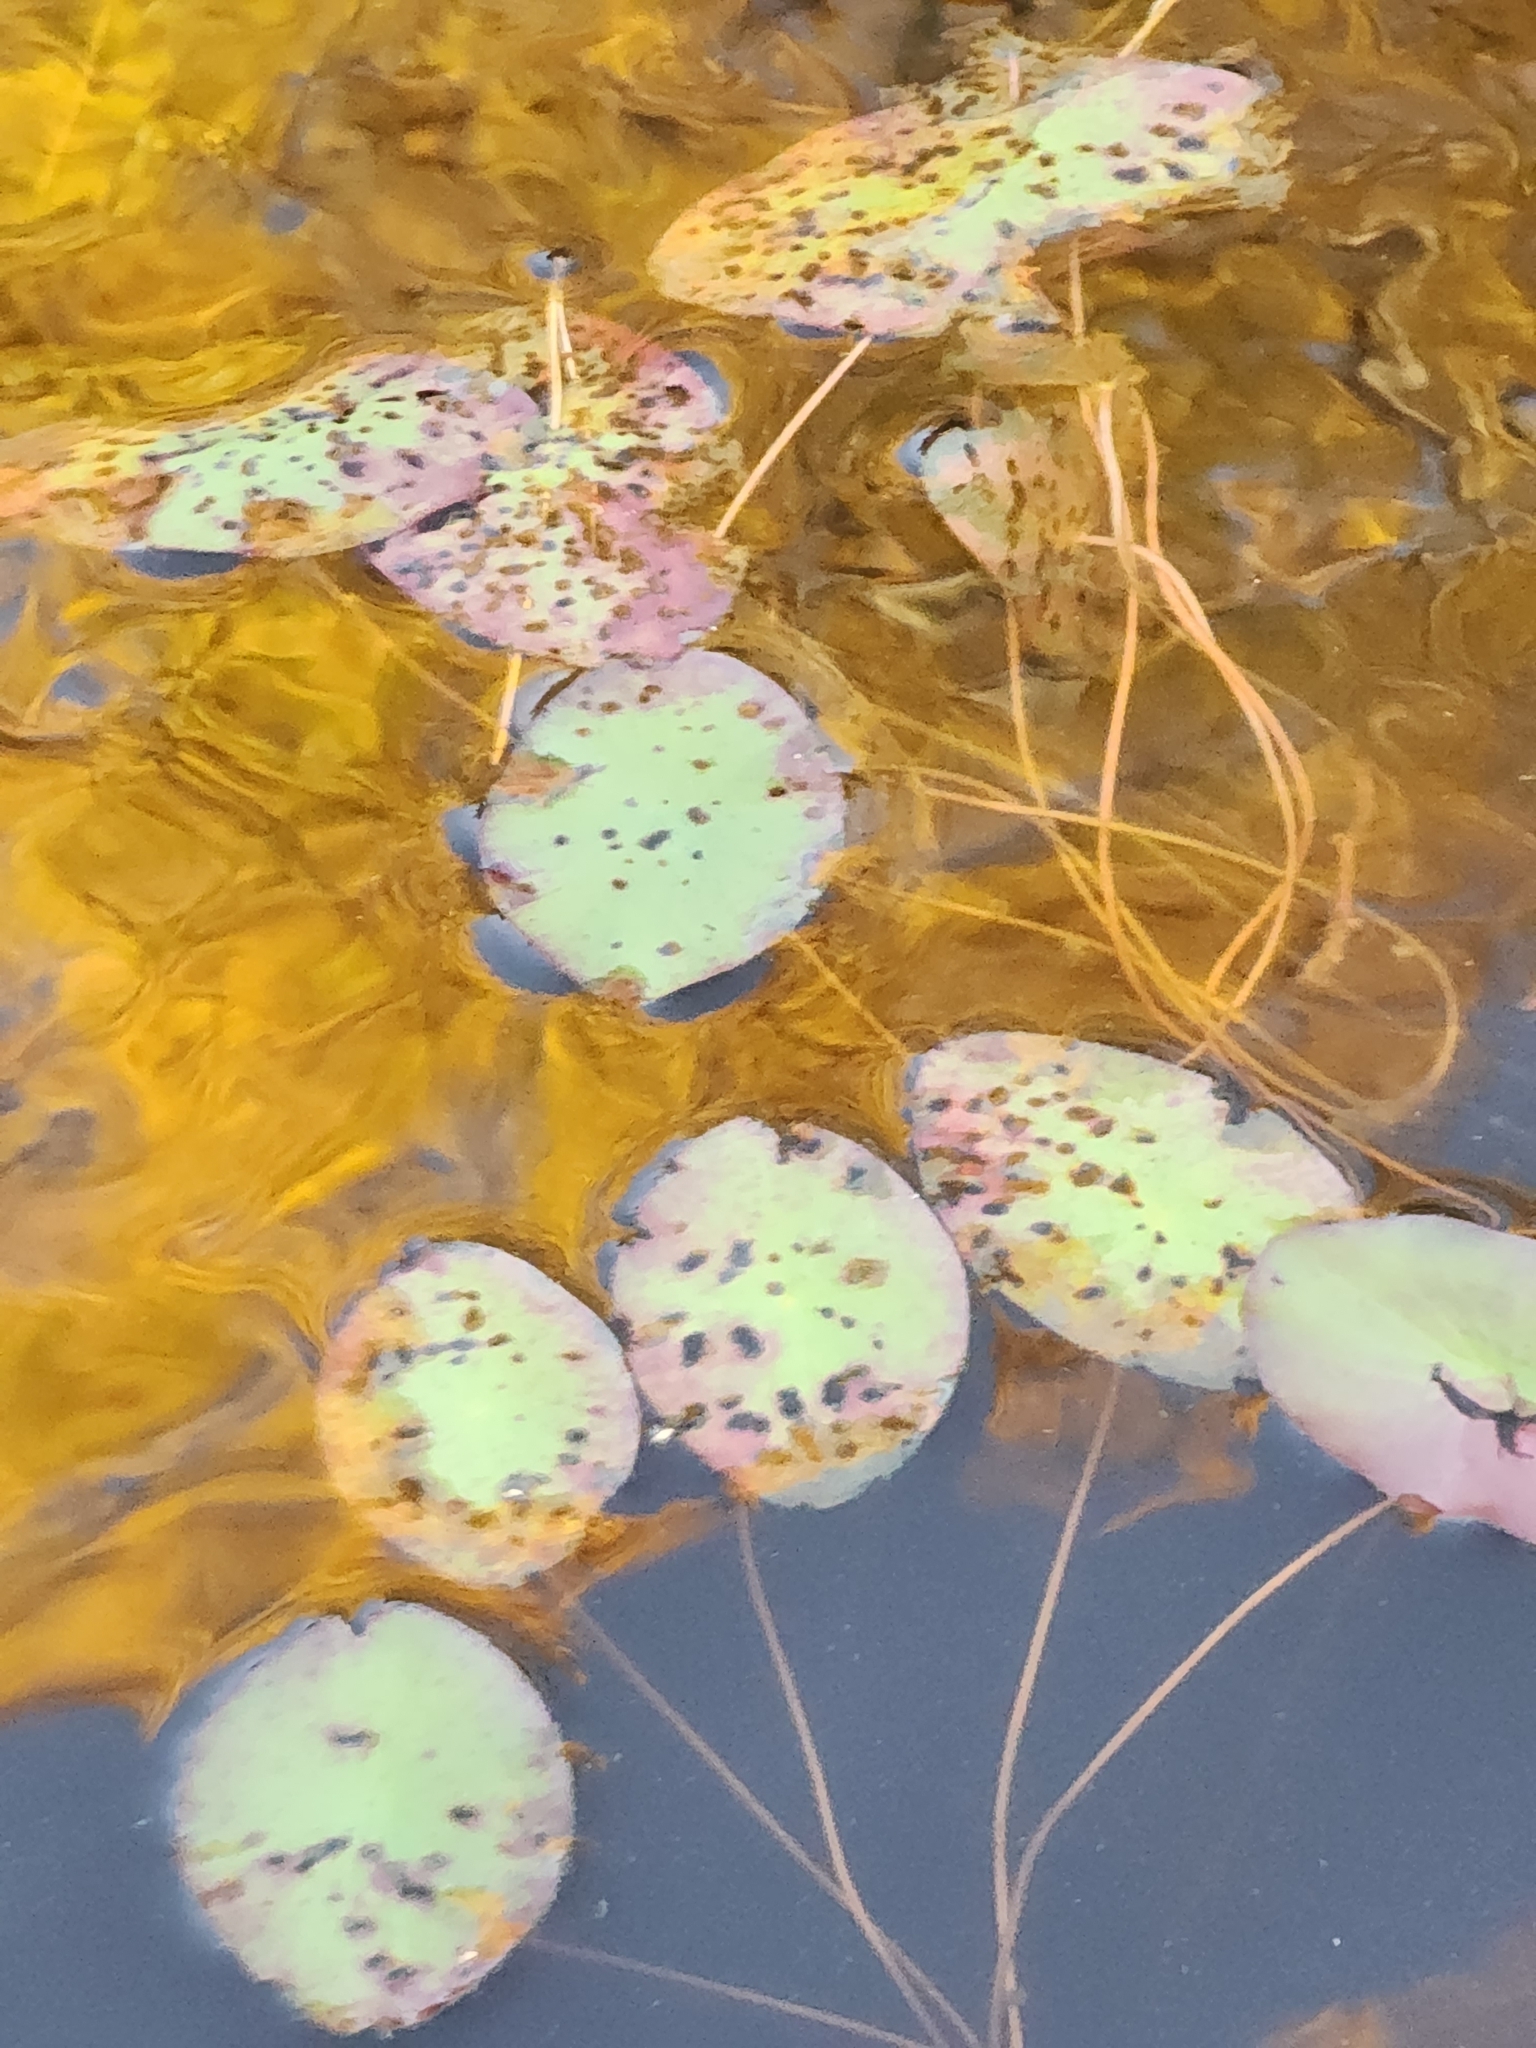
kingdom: Plantae
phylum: Tracheophyta
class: Magnoliopsida
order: Nymphaeales
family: Cabombaceae
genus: Brasenia
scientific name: Brasenia schreberi
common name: Water-shield
